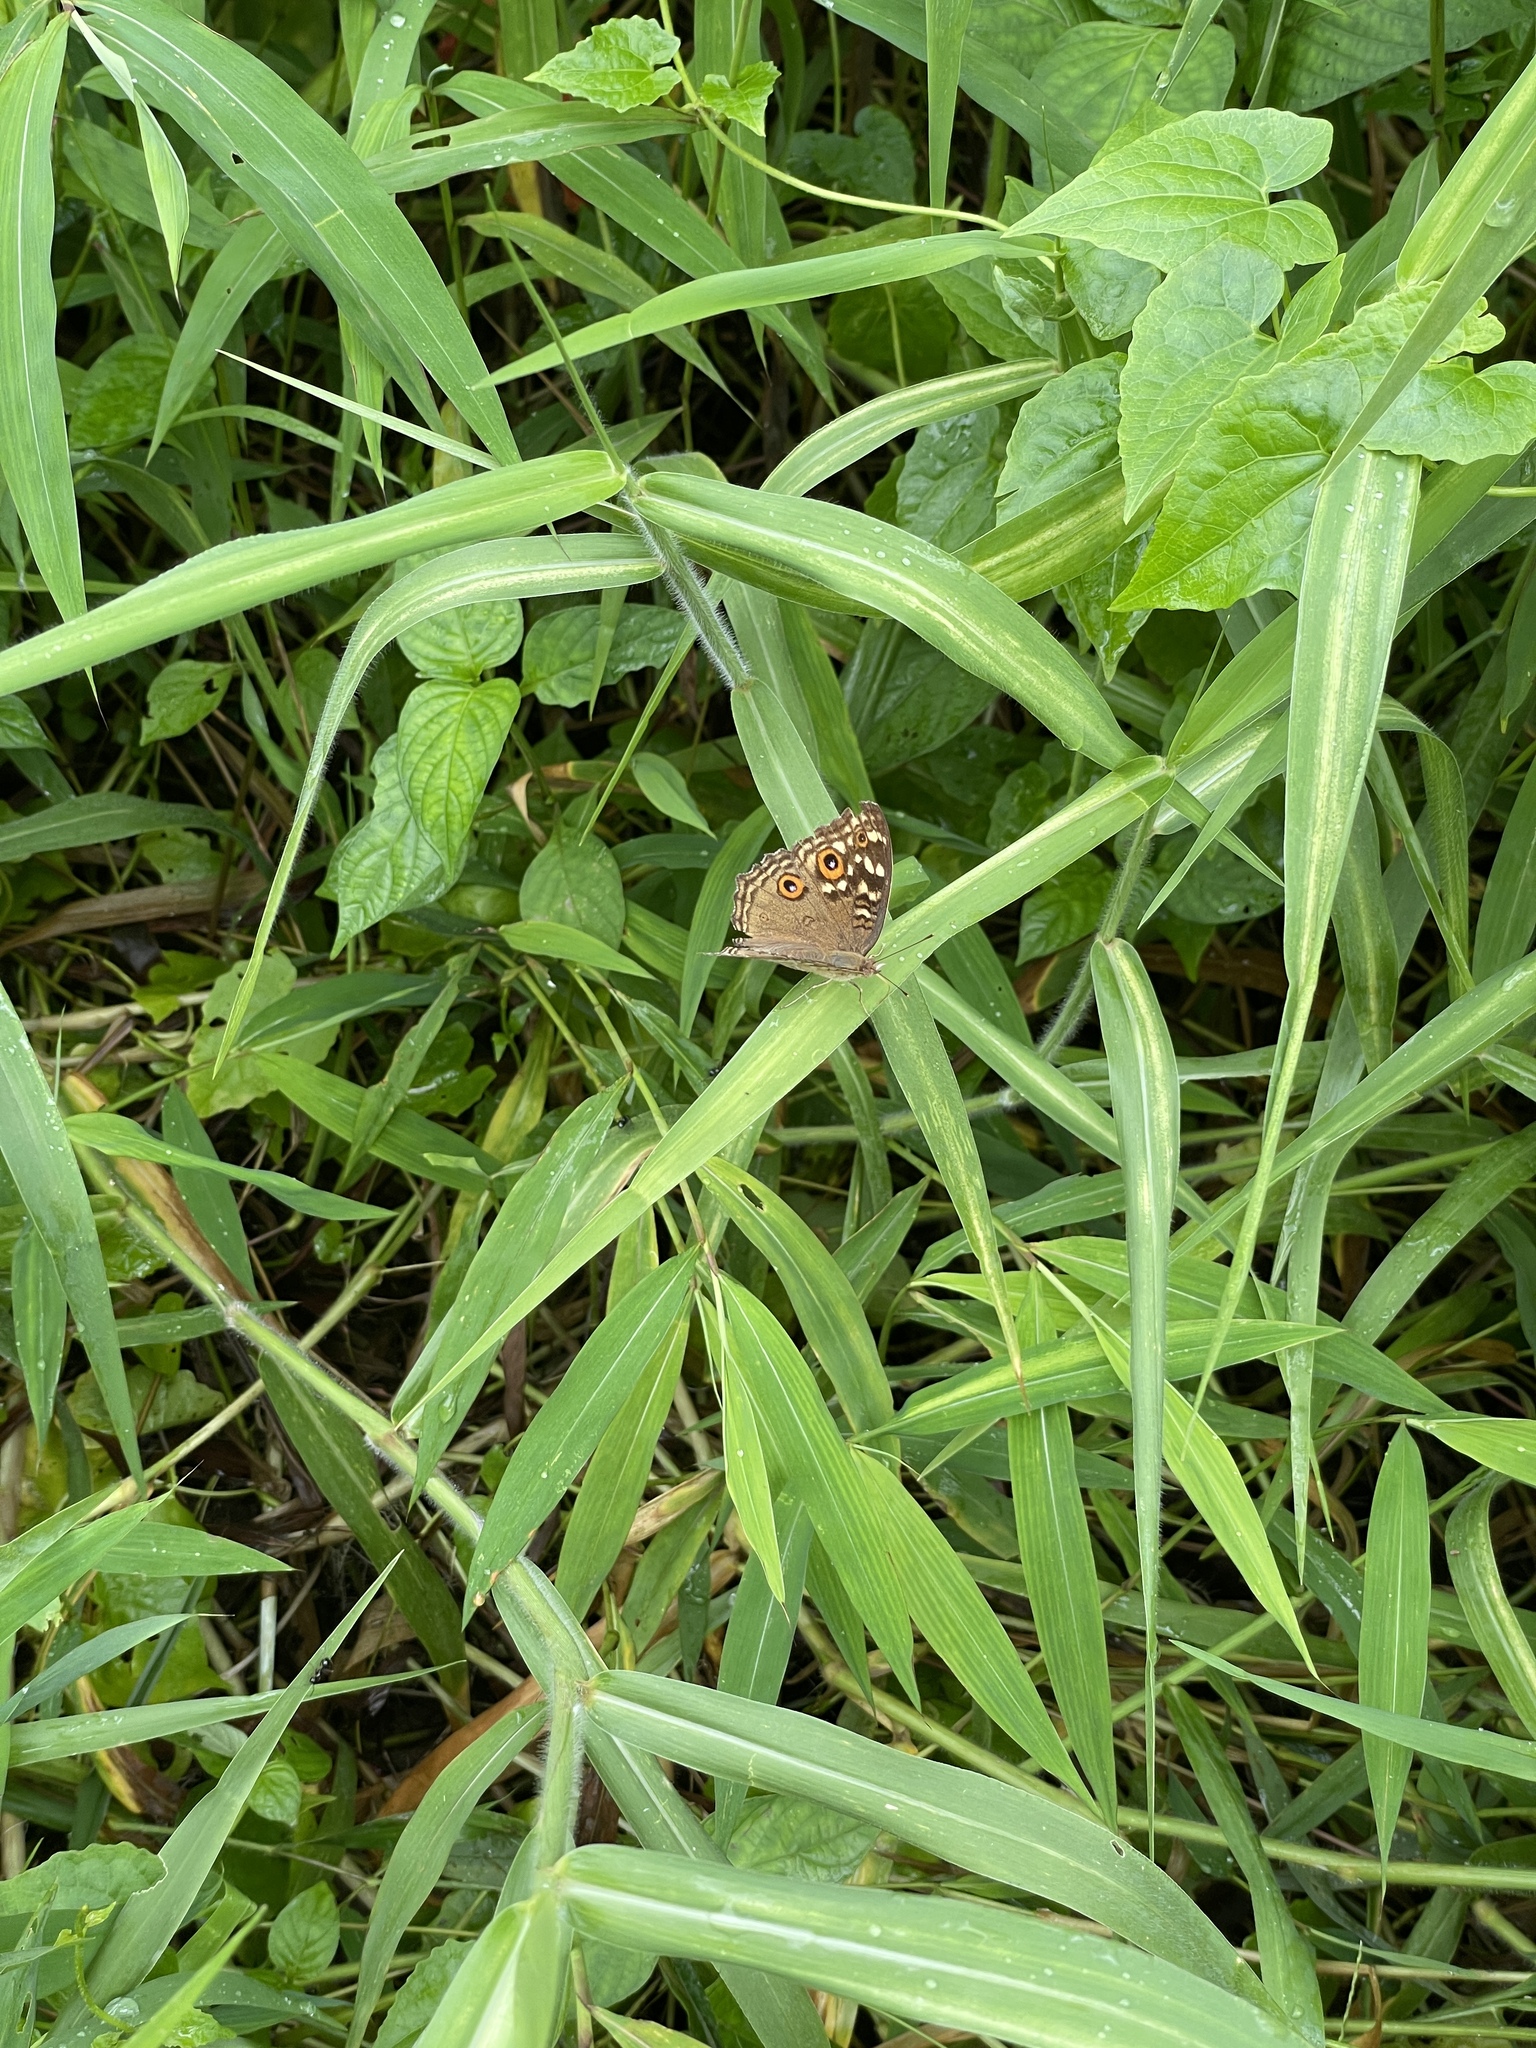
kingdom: Animalia
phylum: Arthropoda
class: Insecta
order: Lepidoptera
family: Nymphalidae
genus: Junonia
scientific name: Junonia lemonias
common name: Lemon pansy
